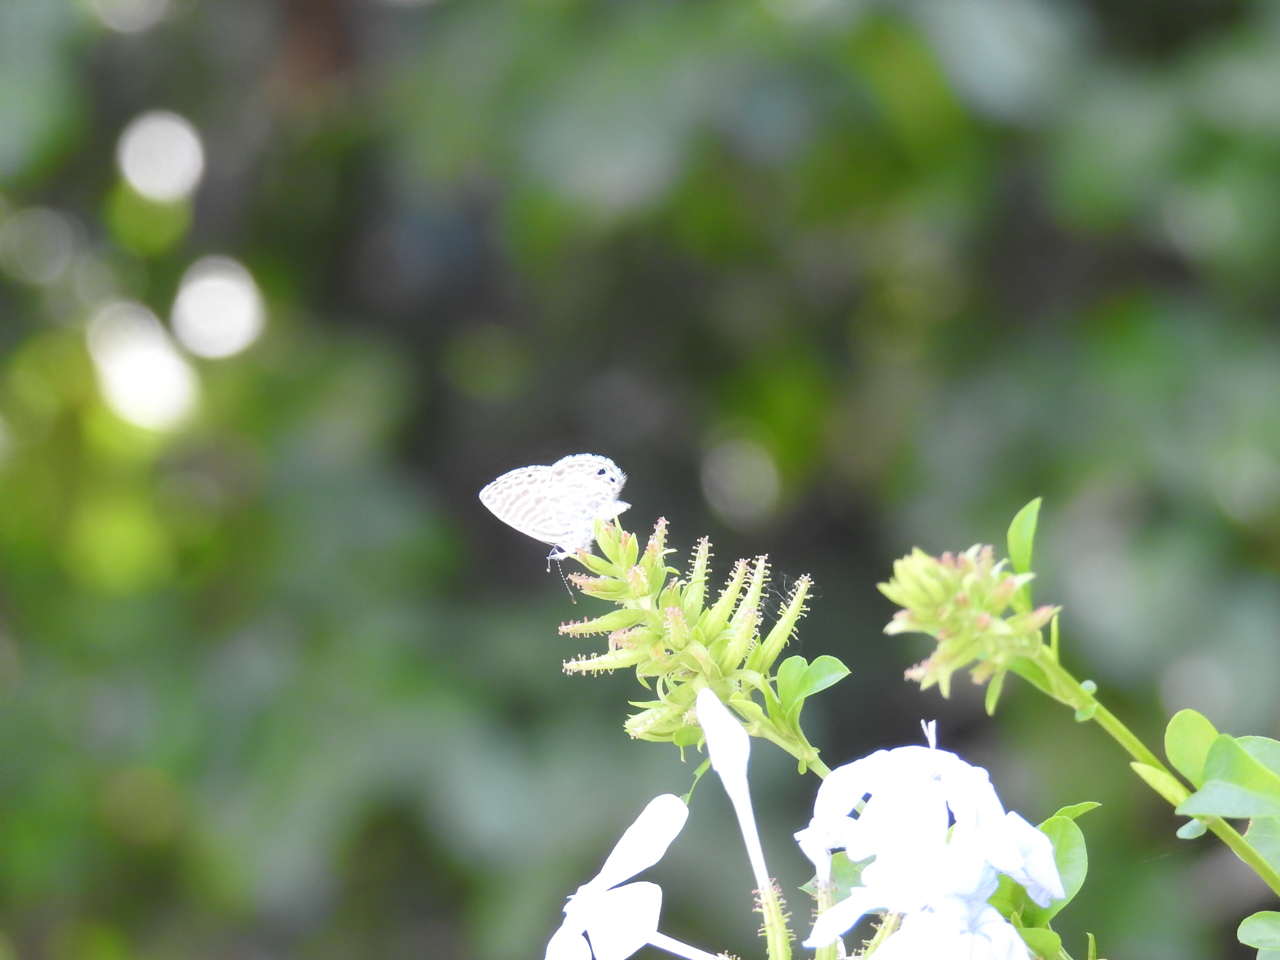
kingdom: Animalia
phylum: Arthropoda
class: Insecta
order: Lepidoptera
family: Lycaenidae
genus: Leptotes
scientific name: Leptotes marina
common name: Marine blue
